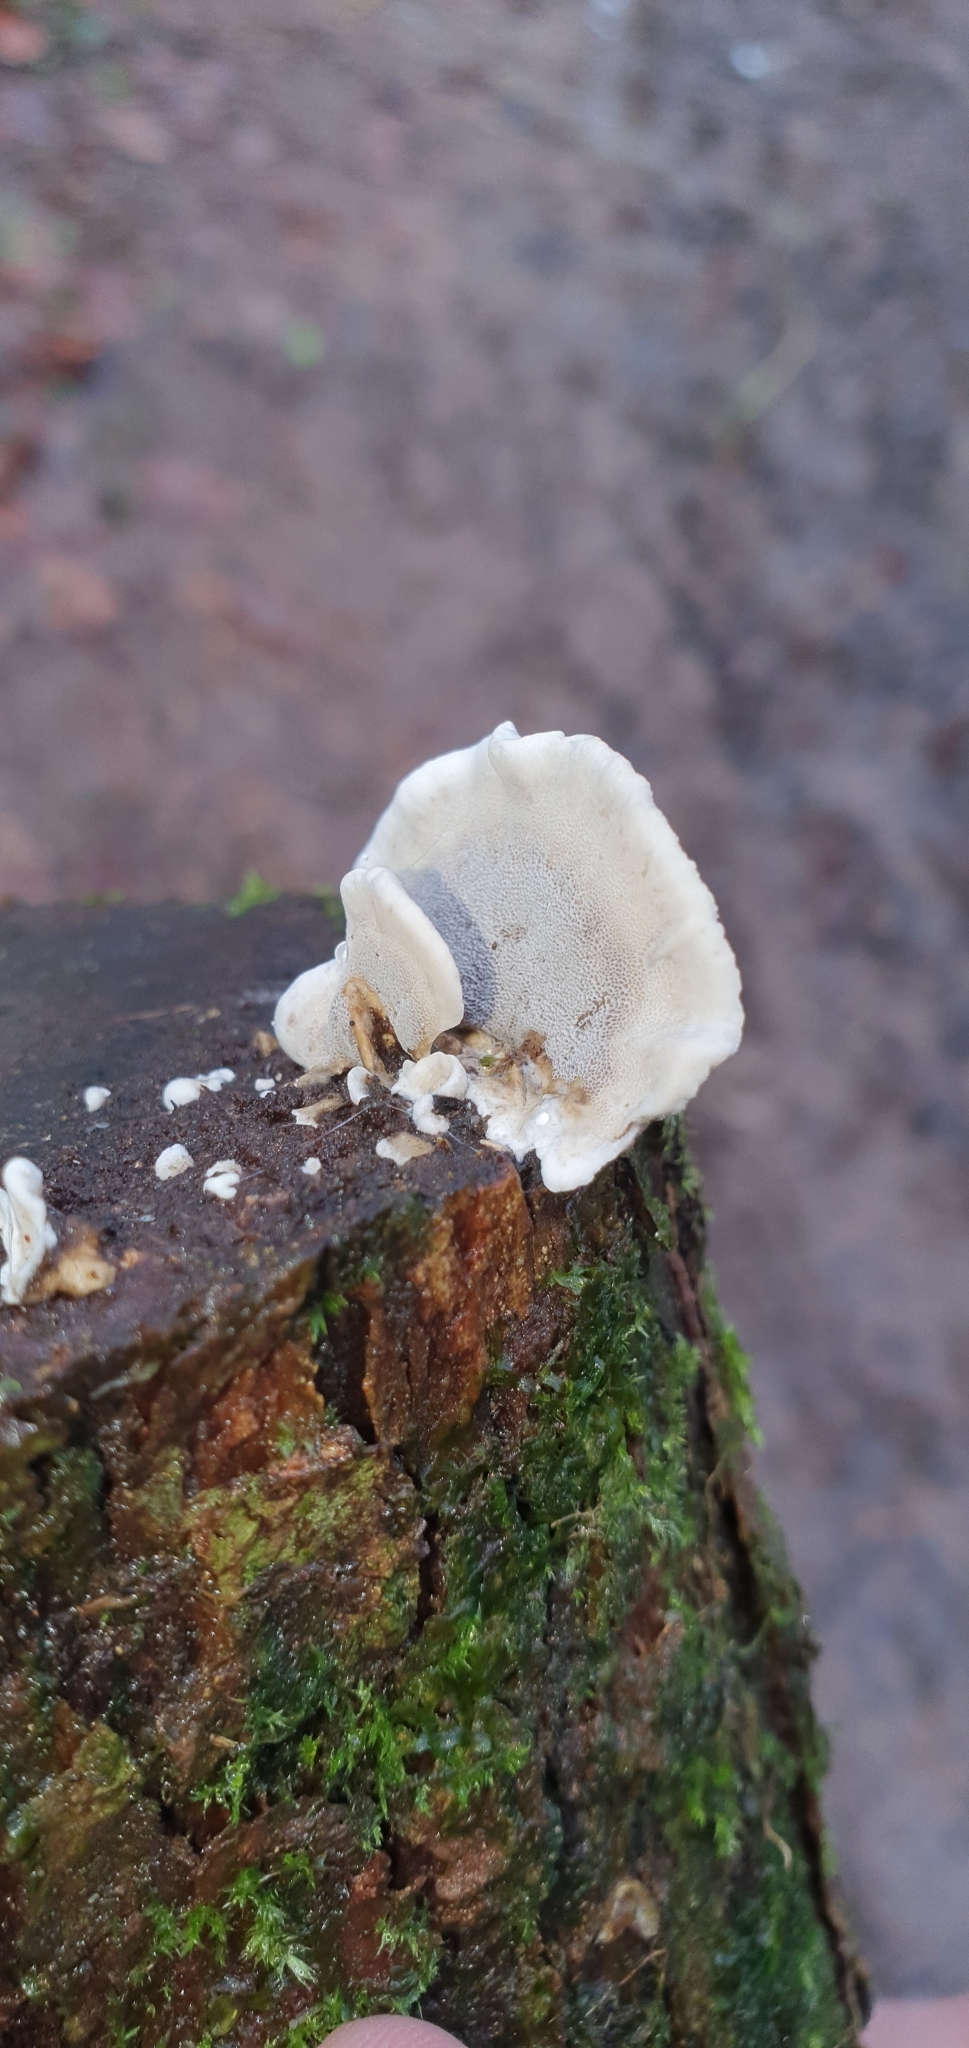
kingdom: Fungi
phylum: Basidiomycota
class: Agaricomycetes
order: Polyporales
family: Phanerochaetaceae
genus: Bjerkandera
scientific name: Bjerkandera adusta
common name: Smoky bracket
